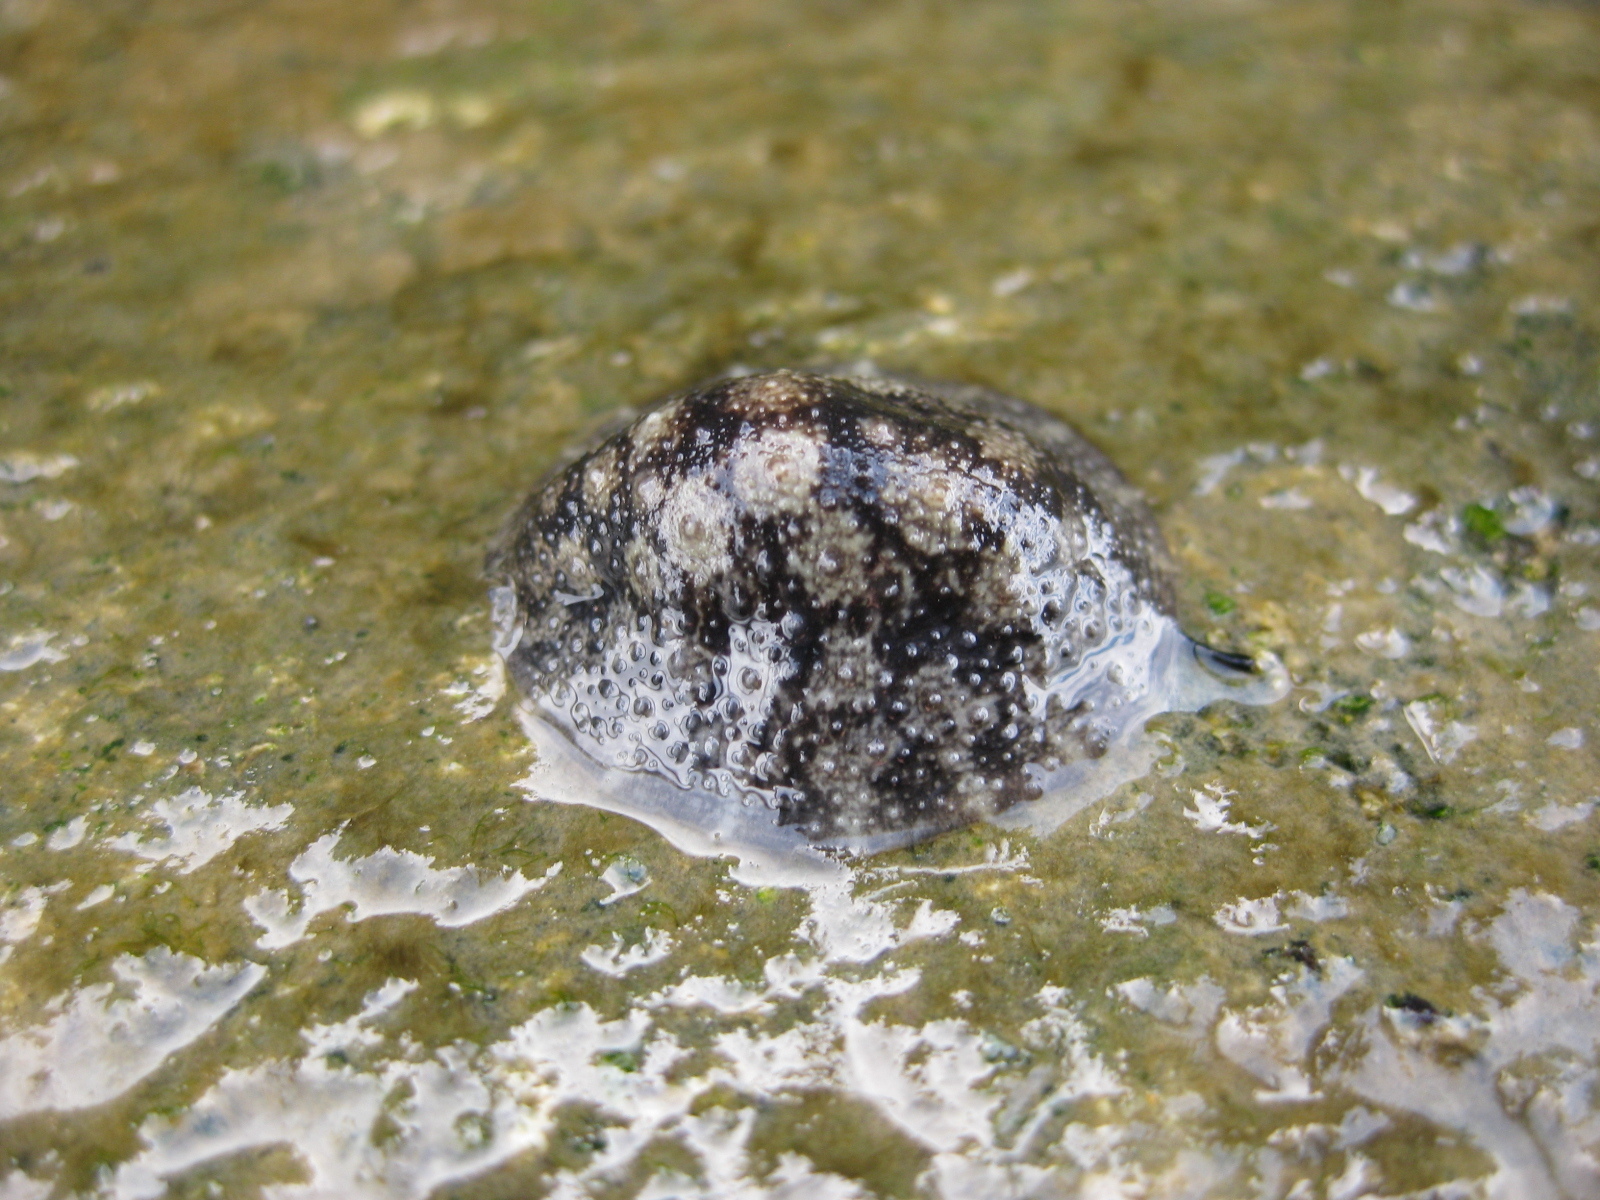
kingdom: Animalia
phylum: Mollusca
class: Gastropoda
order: Systellommatophora
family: Onchidiidae
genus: Onchidella
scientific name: Onchidella nigricans
